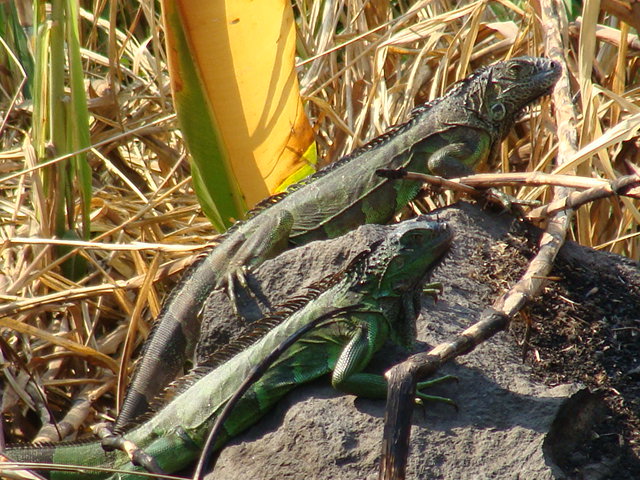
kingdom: Animalia
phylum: Chordata
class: Squamata
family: Iguanidae
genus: Iguana
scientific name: Iguana iguana
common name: Green iguana
